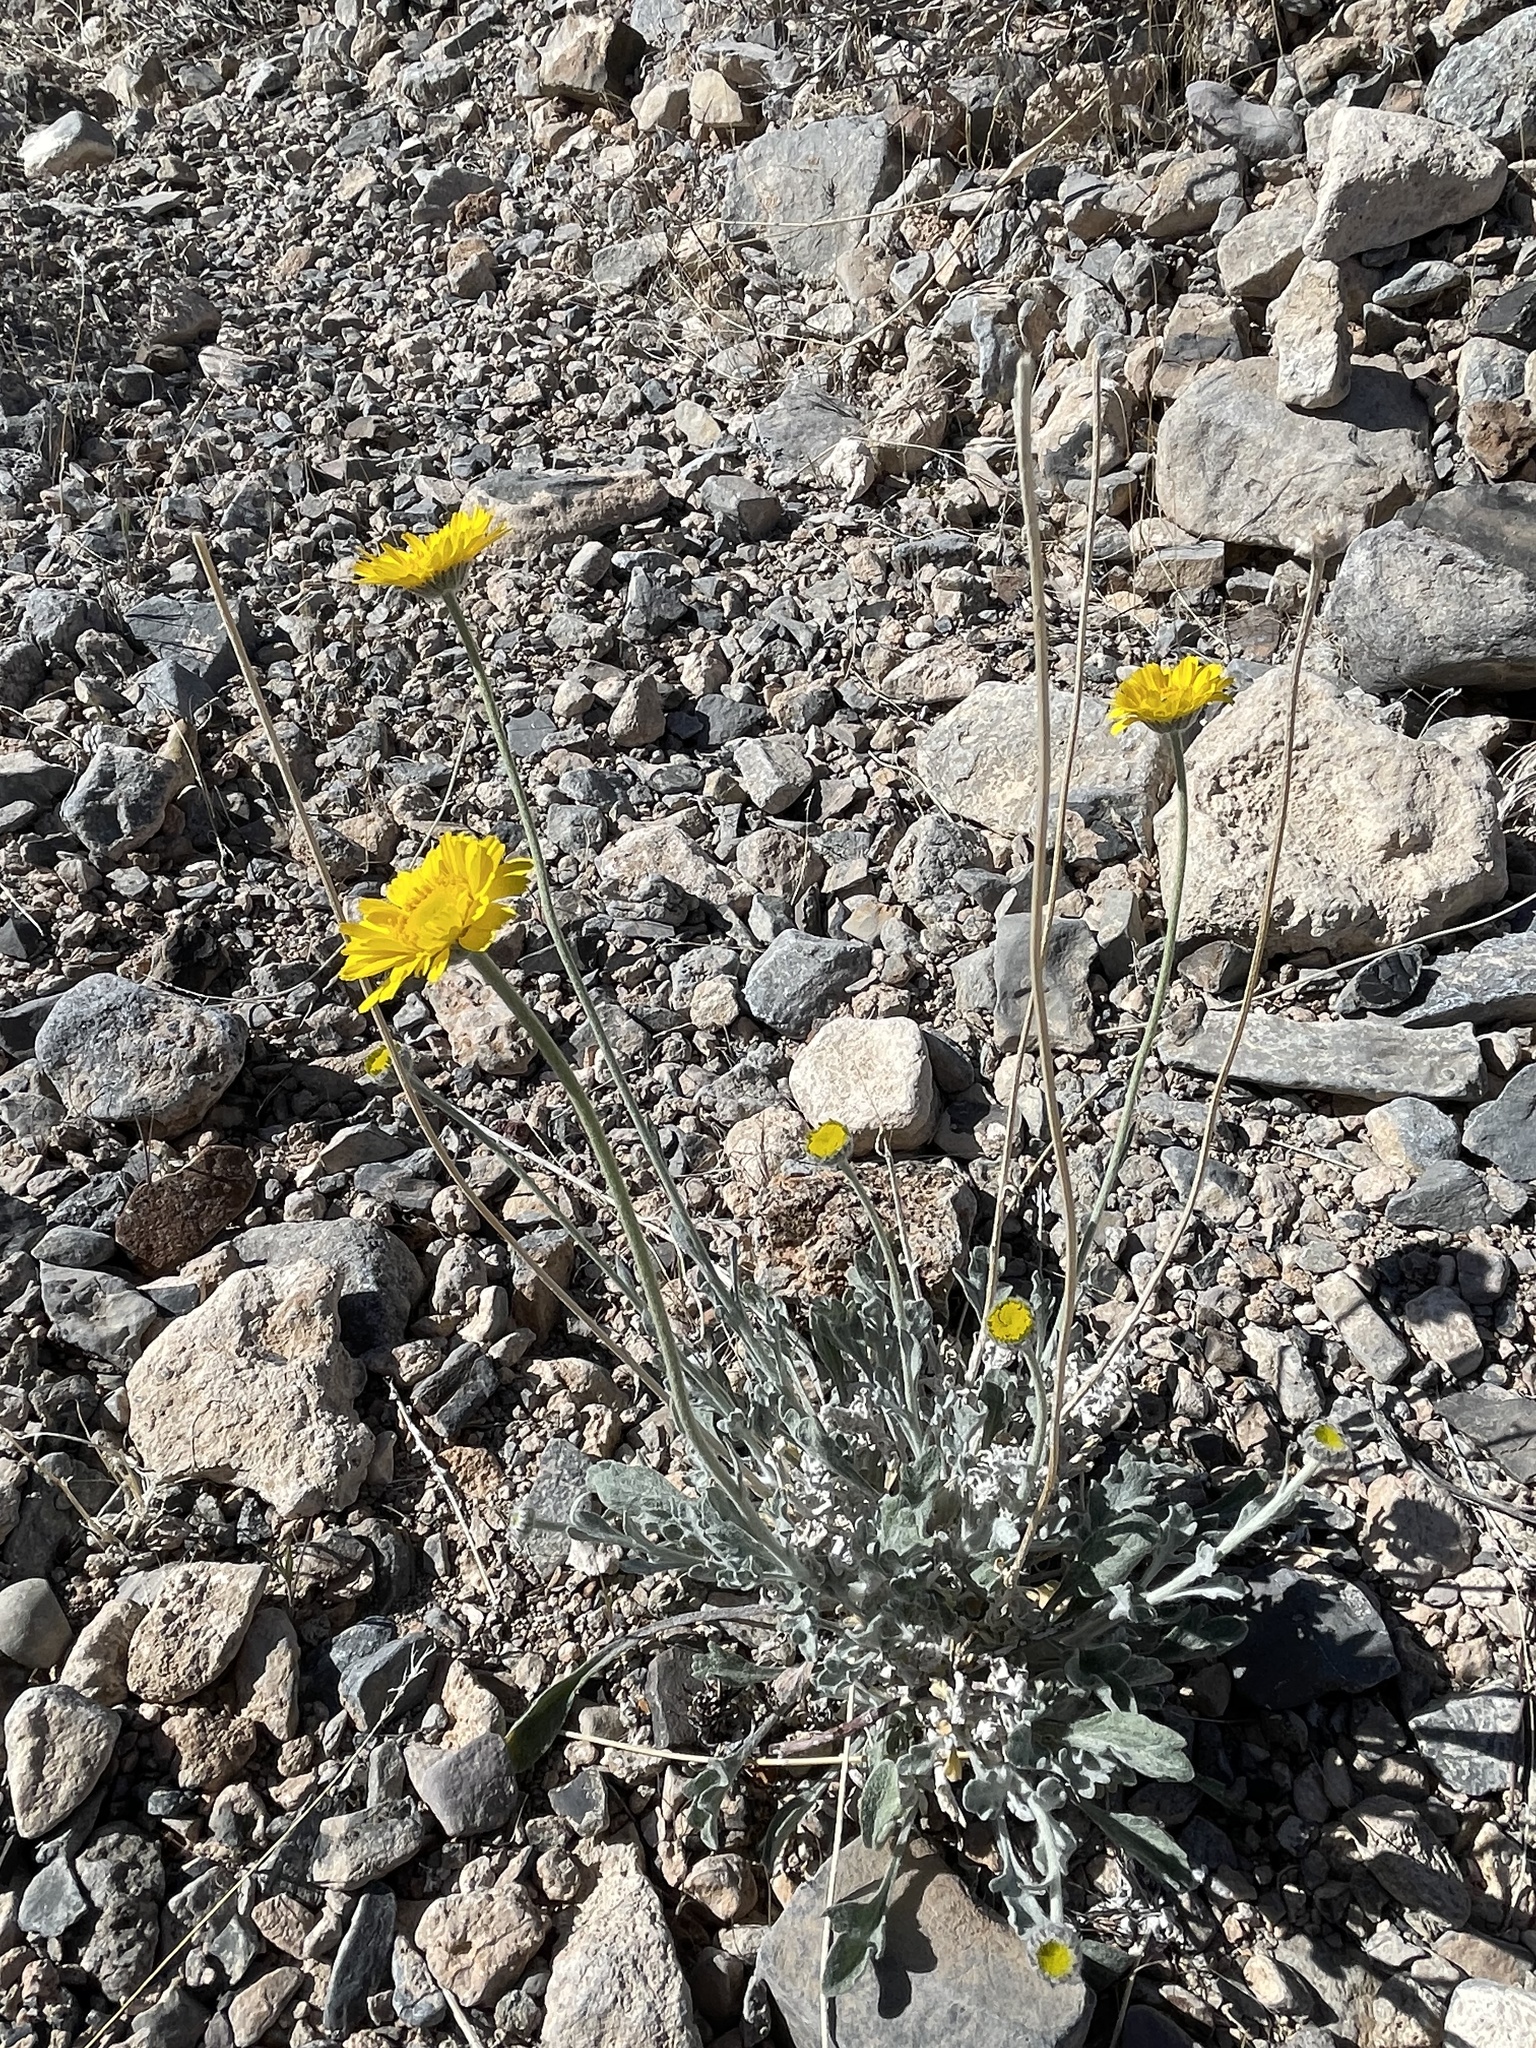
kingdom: Plantae
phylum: Tracheophyta
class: Magnoliopsida
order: Asterales
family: Asteraceae
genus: Baileya
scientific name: Baileya multiradiata
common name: Desert-marigold
